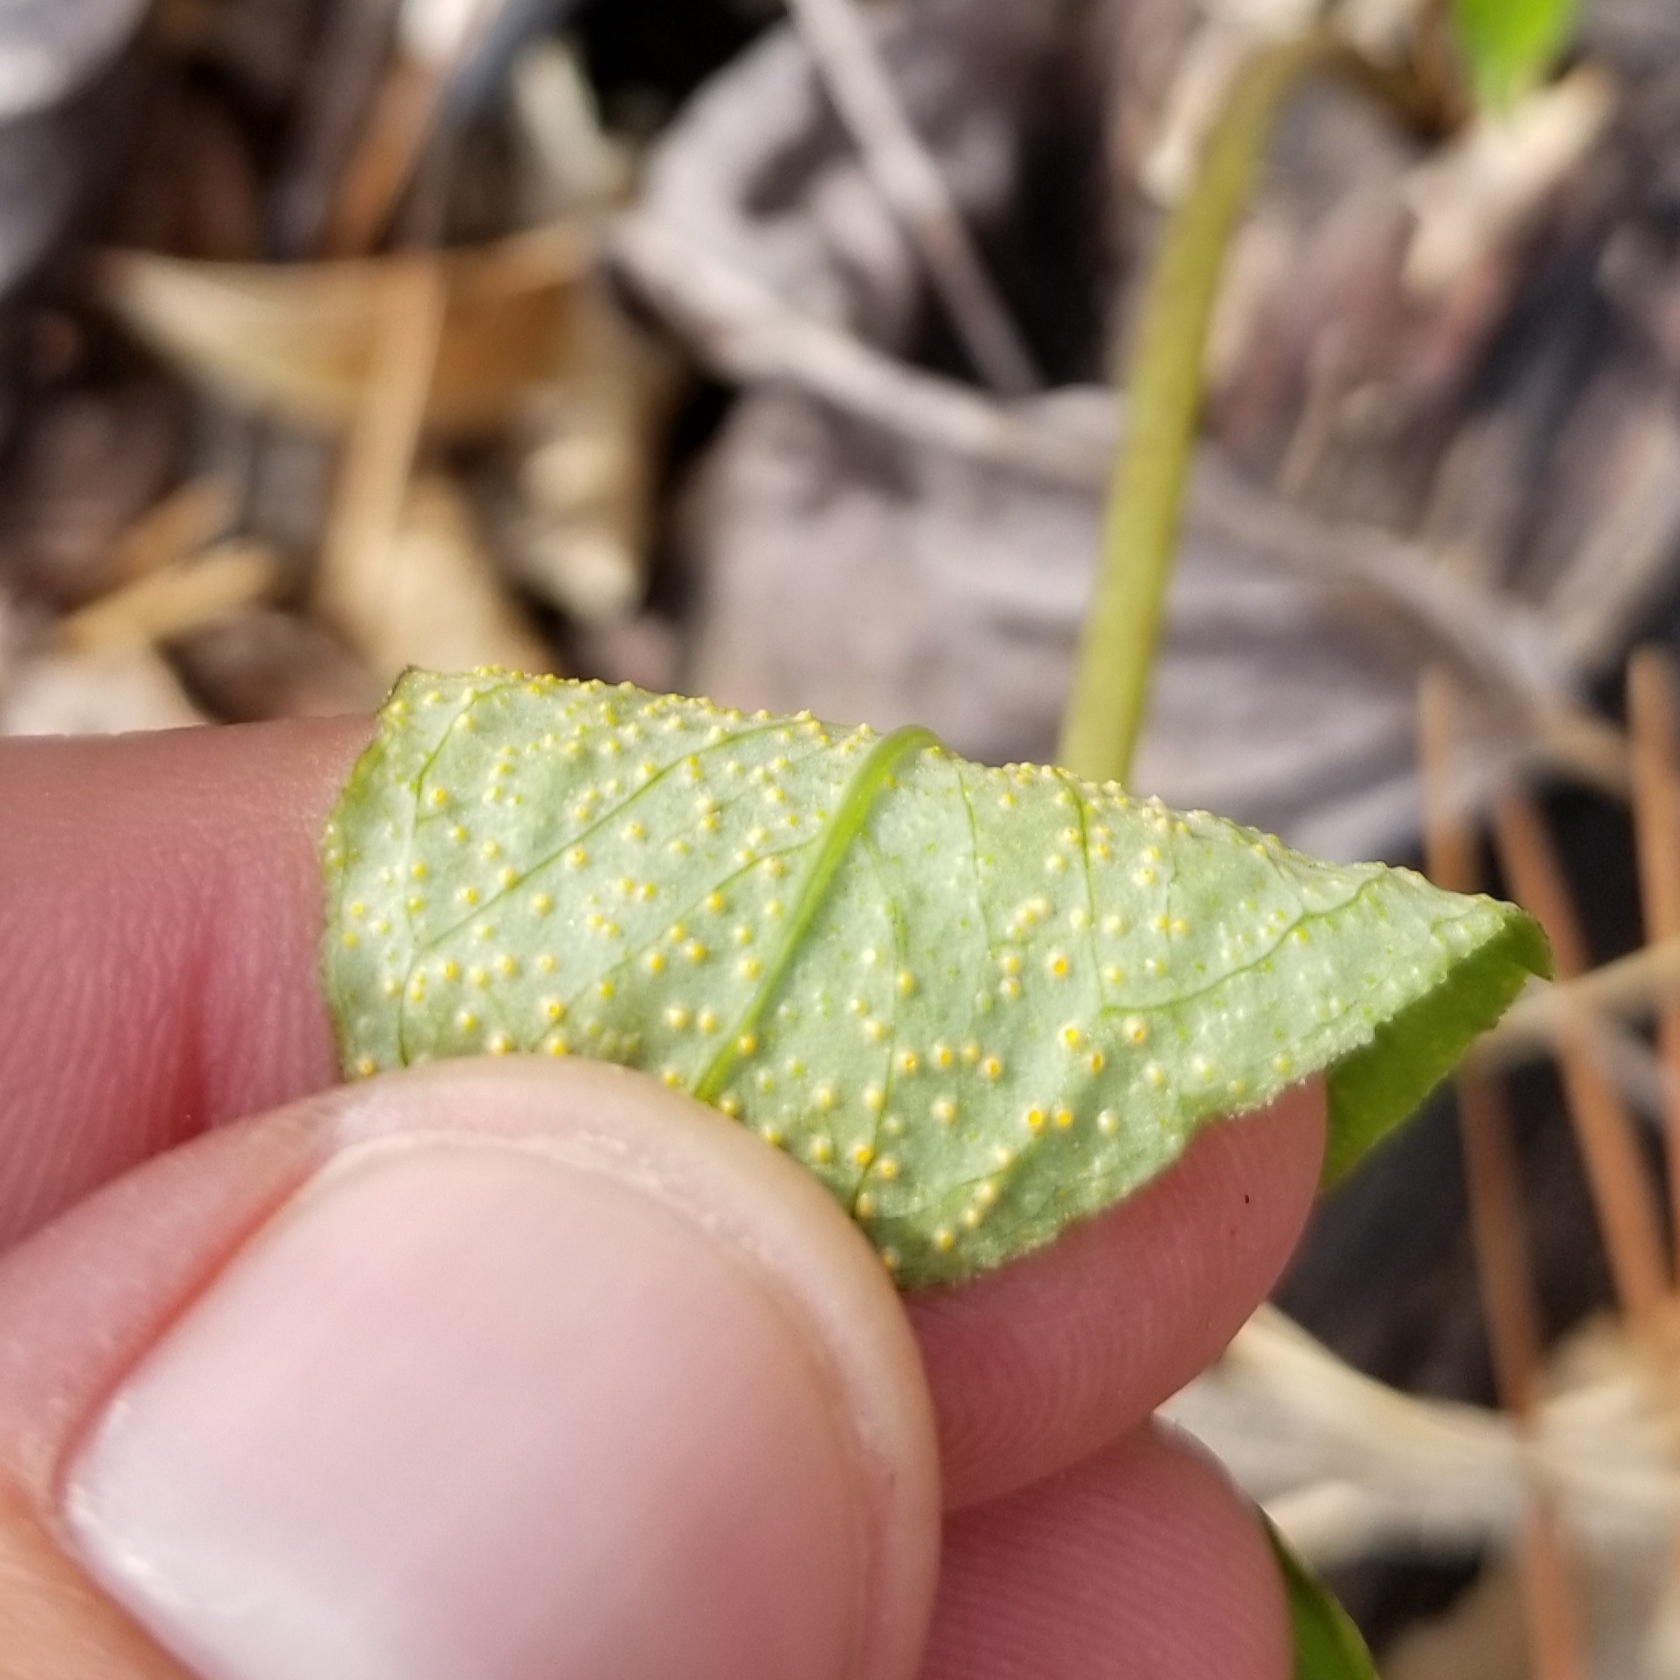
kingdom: Plantae
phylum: Tracheophyta
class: Liliopsida
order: Alismatales
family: Araceae
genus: Arisaema
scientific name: Arisaema triphyllum
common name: Jack-in-the-pulpit
